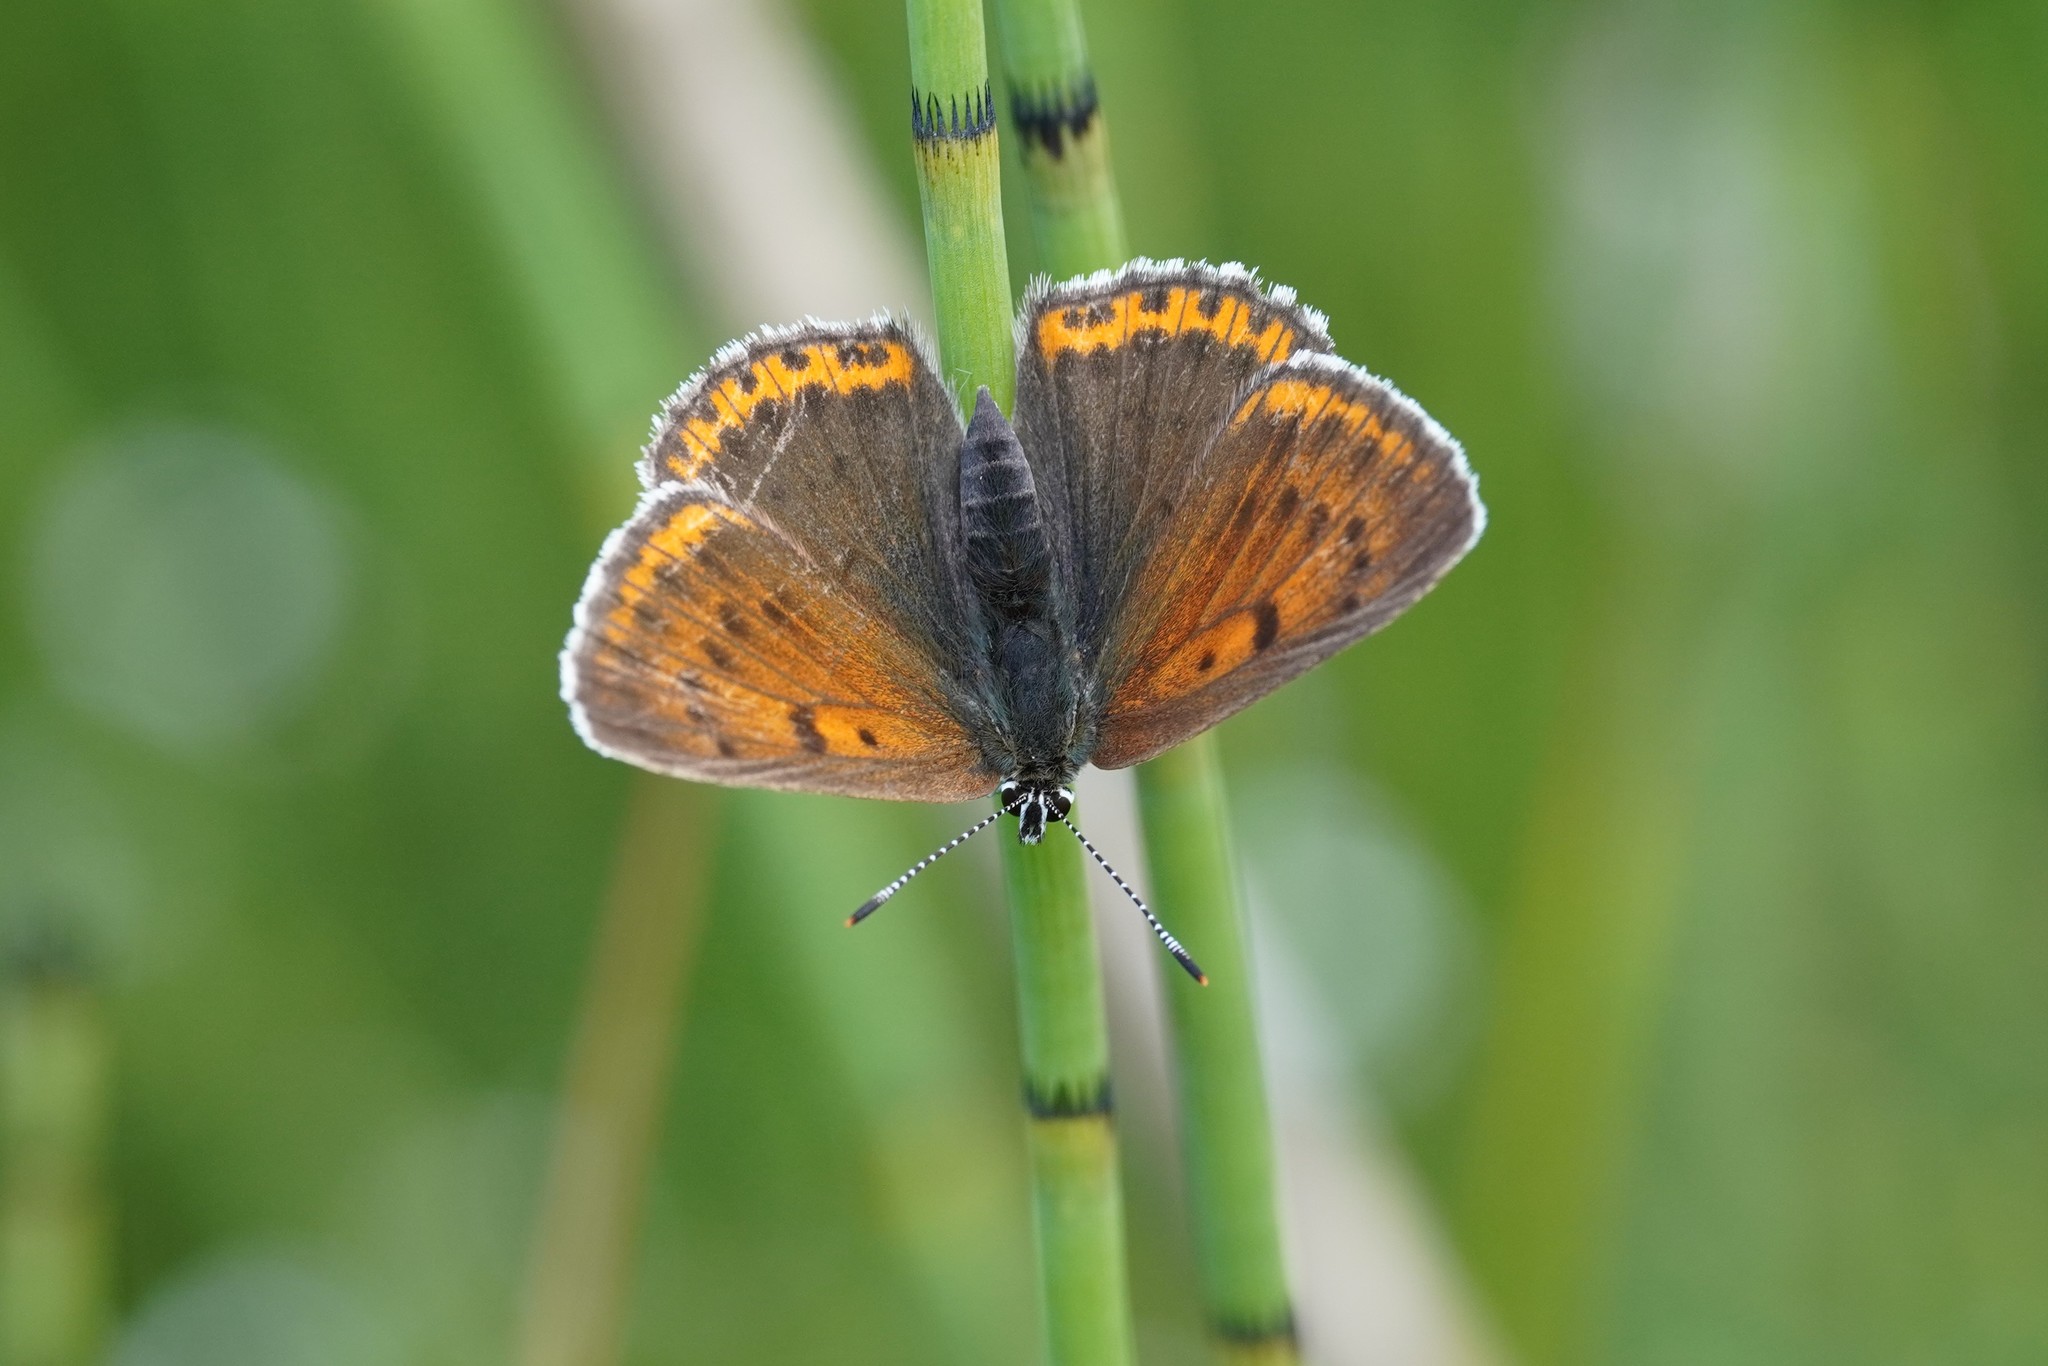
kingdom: Animalia
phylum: Arthropoda
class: Insecta
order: Lepidoptera
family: Lycaenidae
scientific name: Lycaenidae
